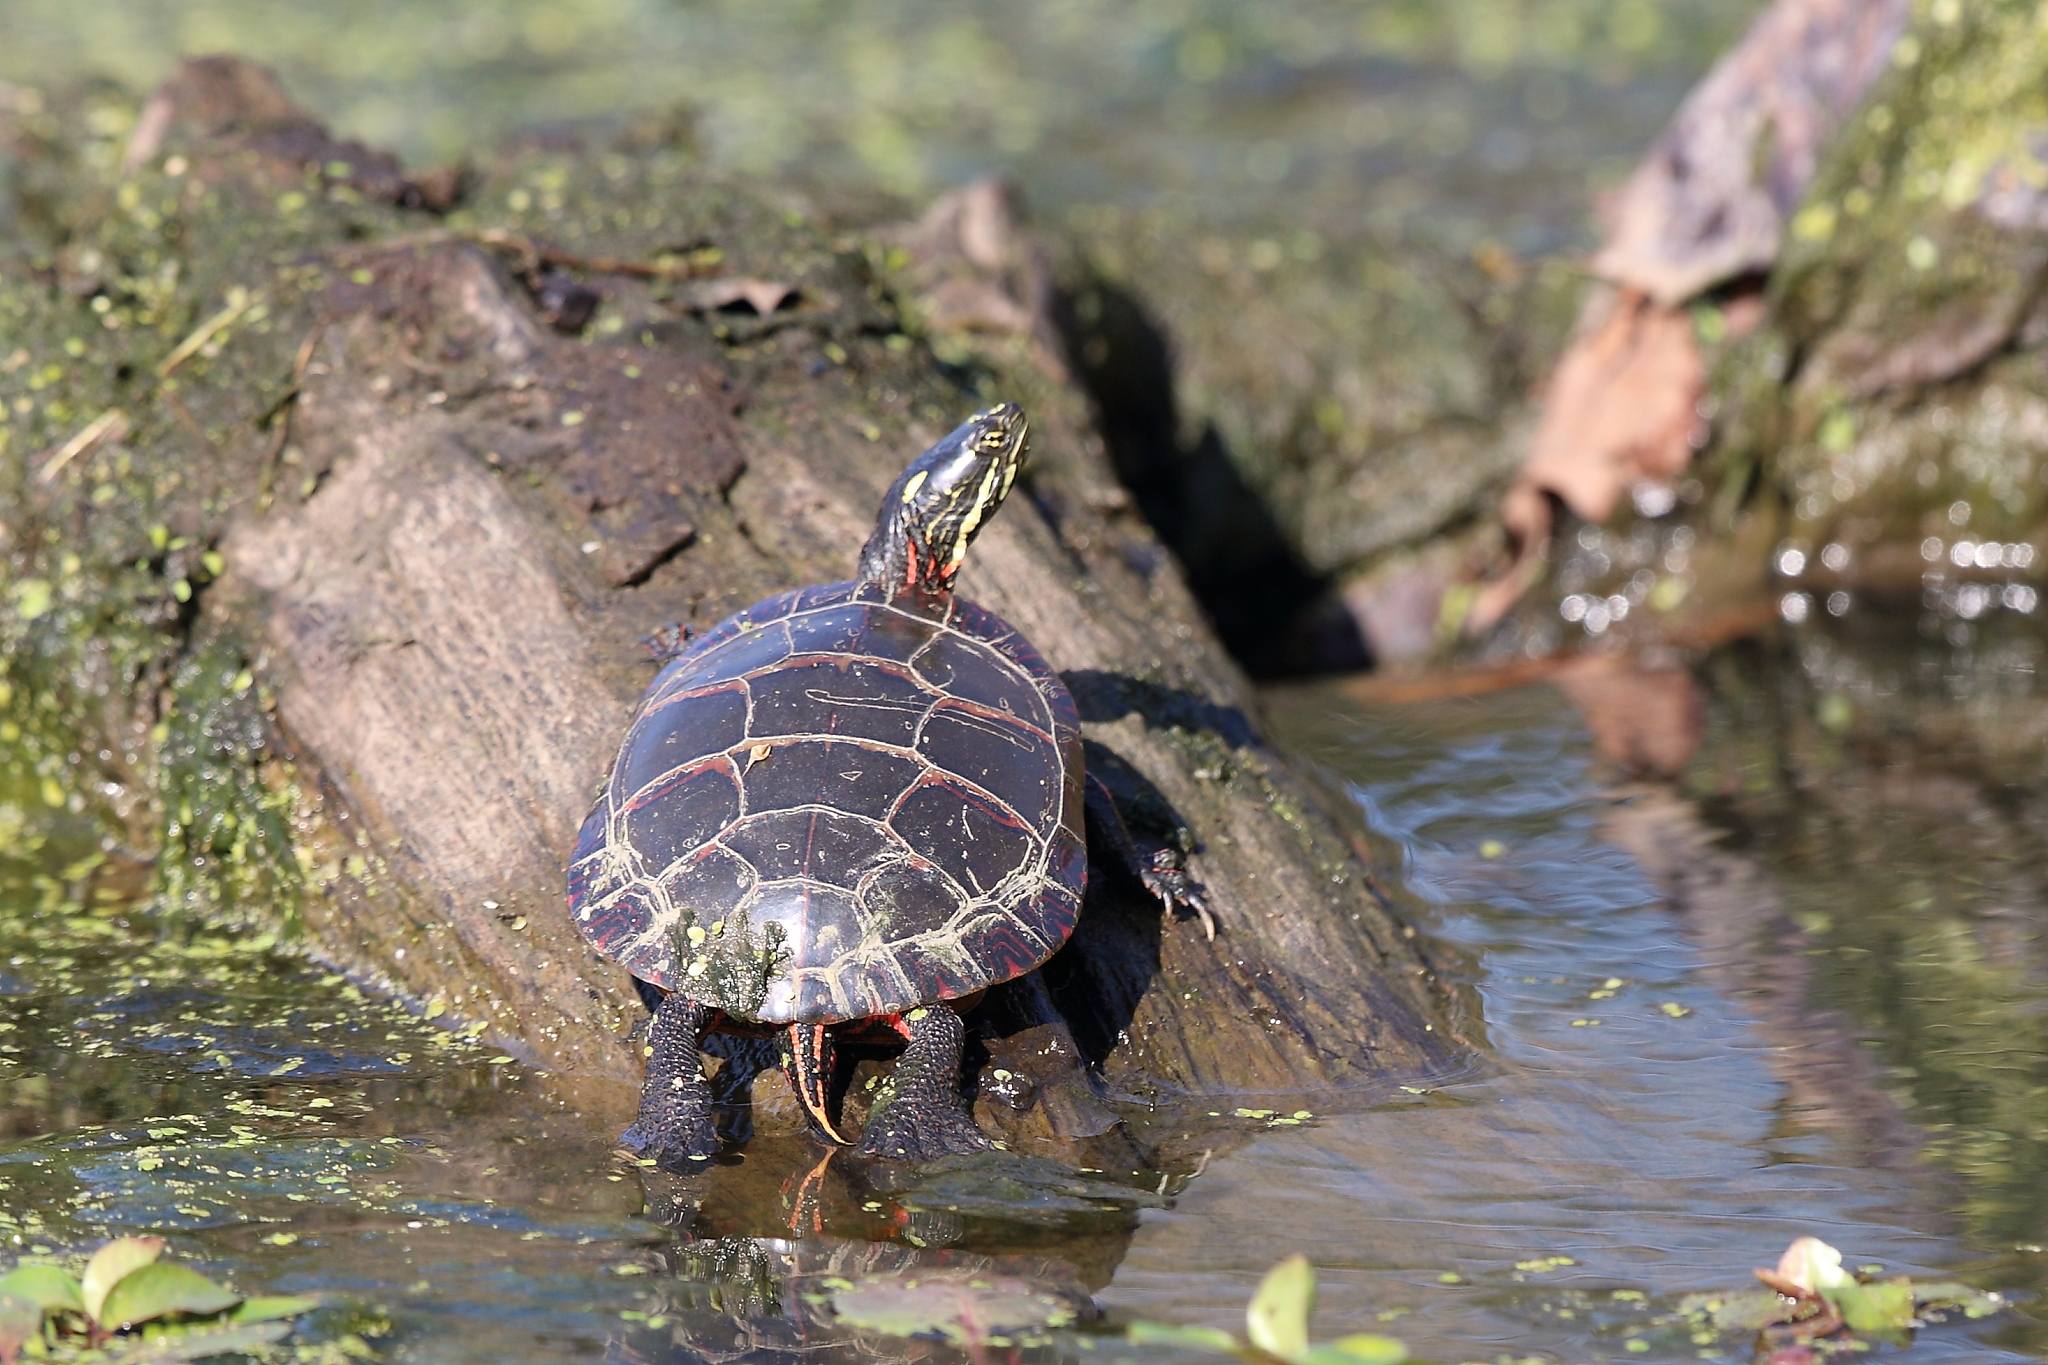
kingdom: Animalia
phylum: Chordata
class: Testudines
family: Emydidae
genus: Chrysemys
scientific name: Chrysemys picta
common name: Painted turtle
